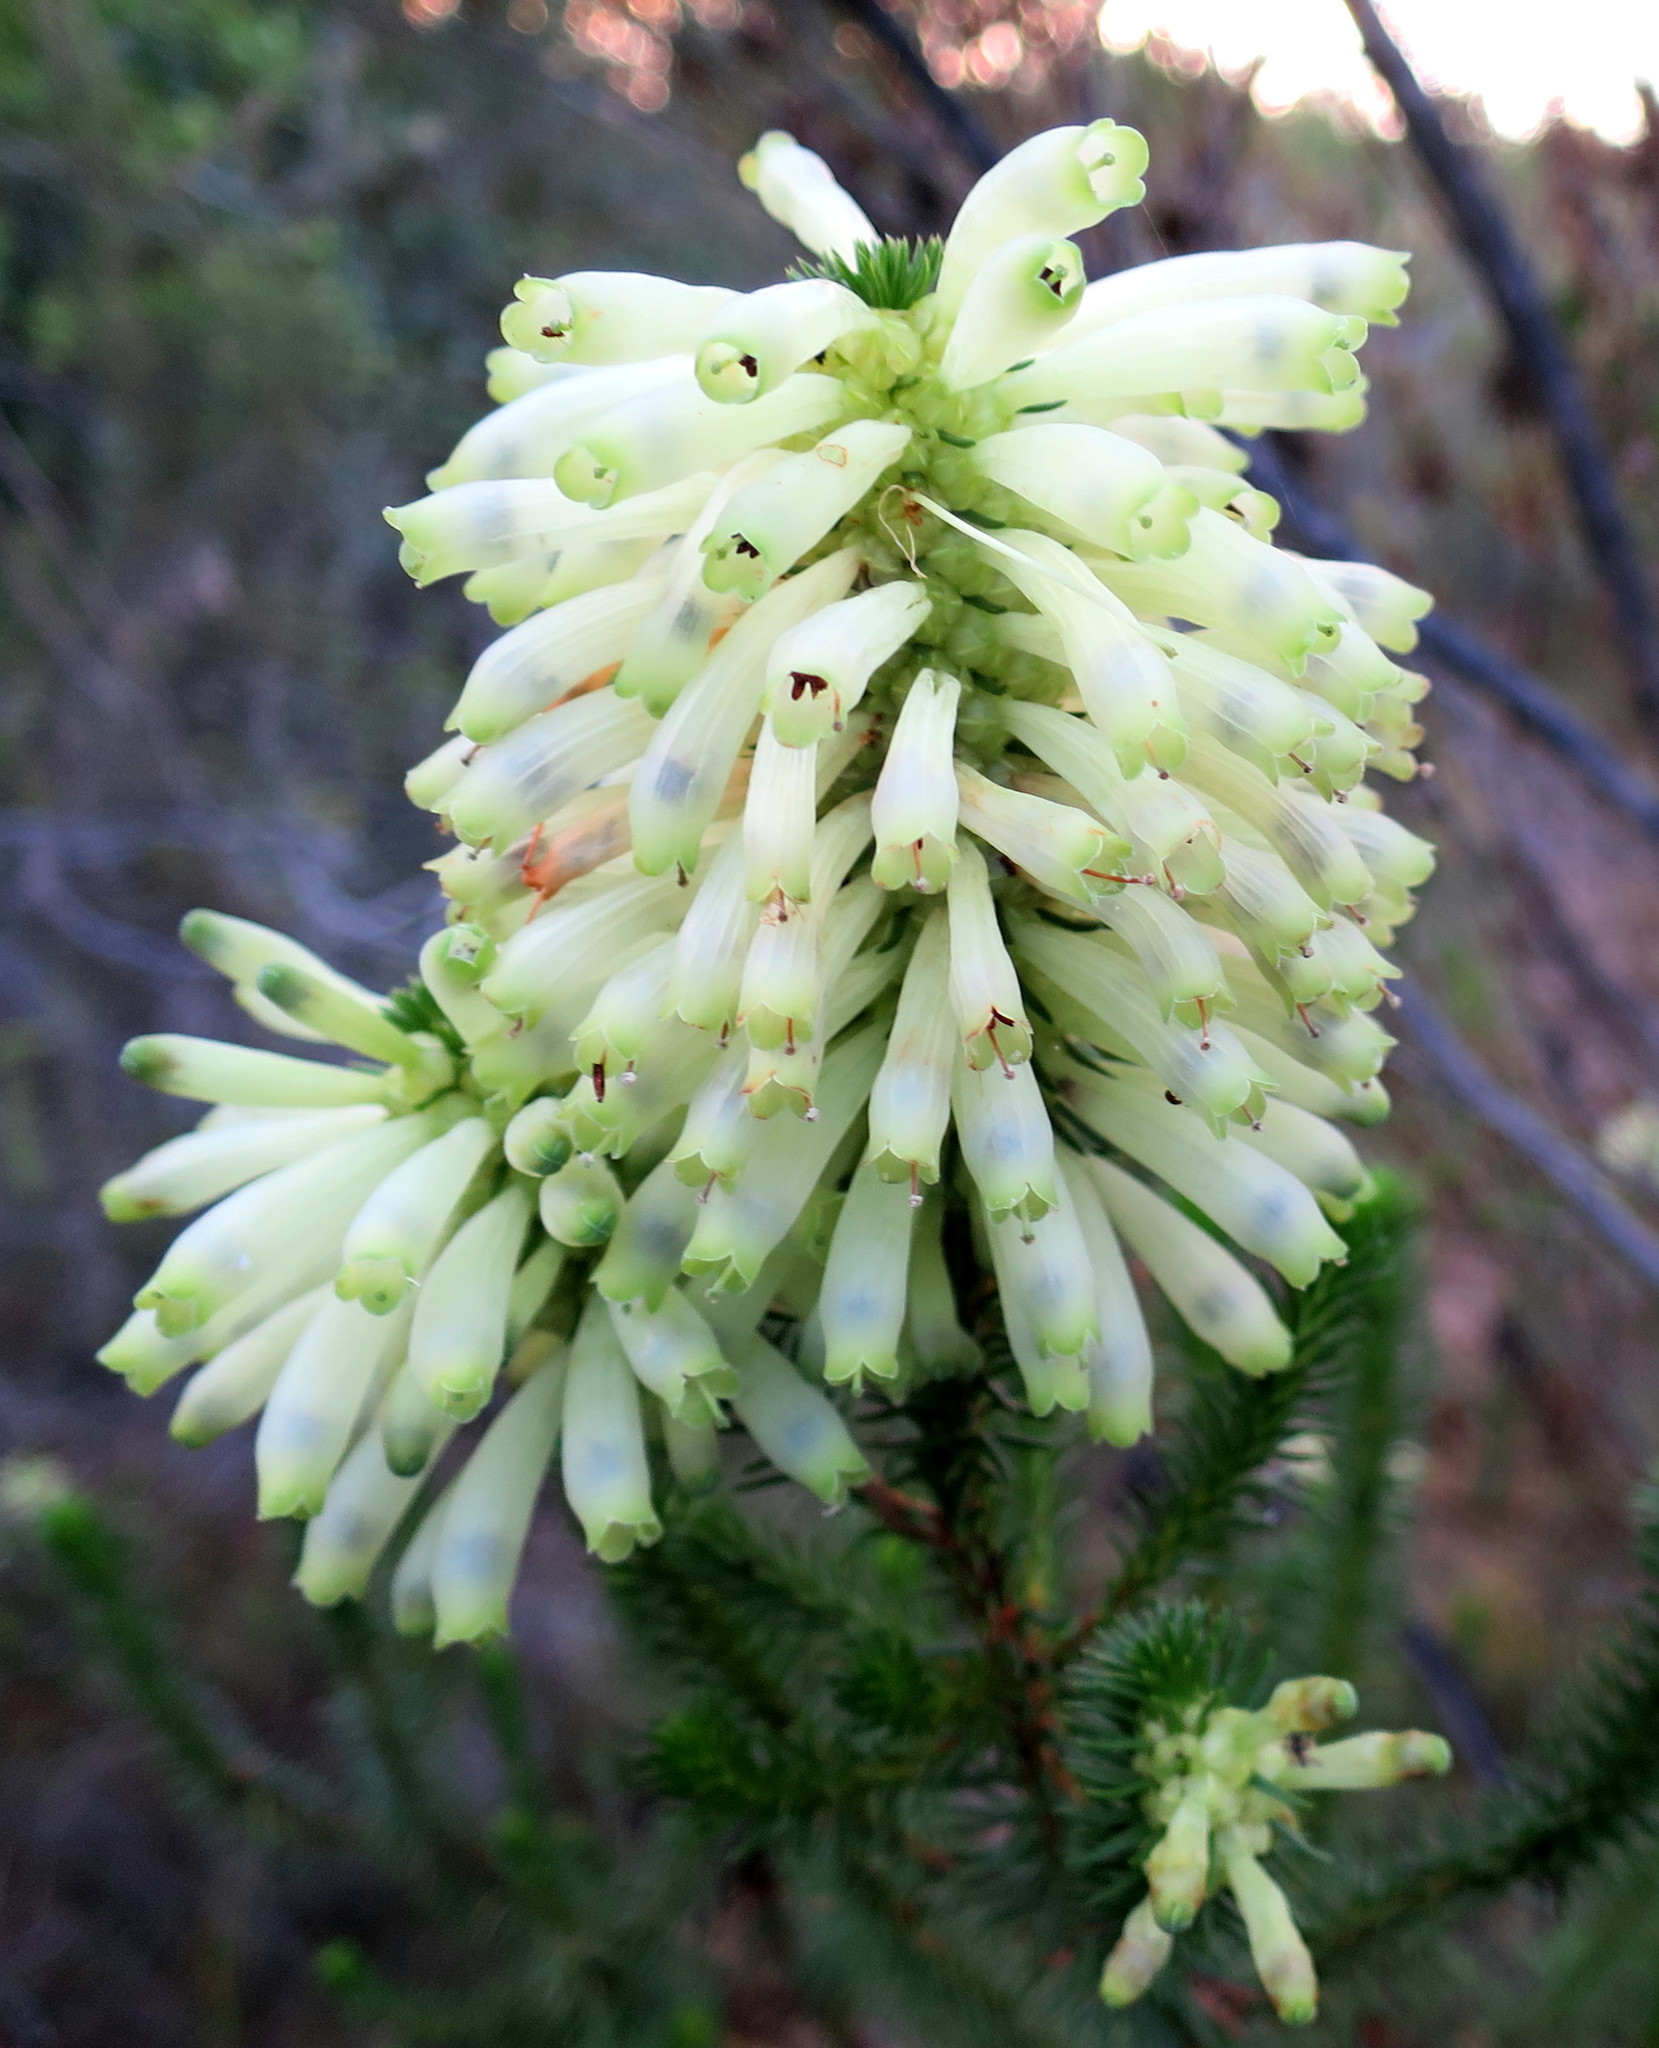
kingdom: Plantae
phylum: Tracheophyta
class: Magnoliopsida
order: Ericales
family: Ericaceae
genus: Erica
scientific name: Erica sessiliflora
